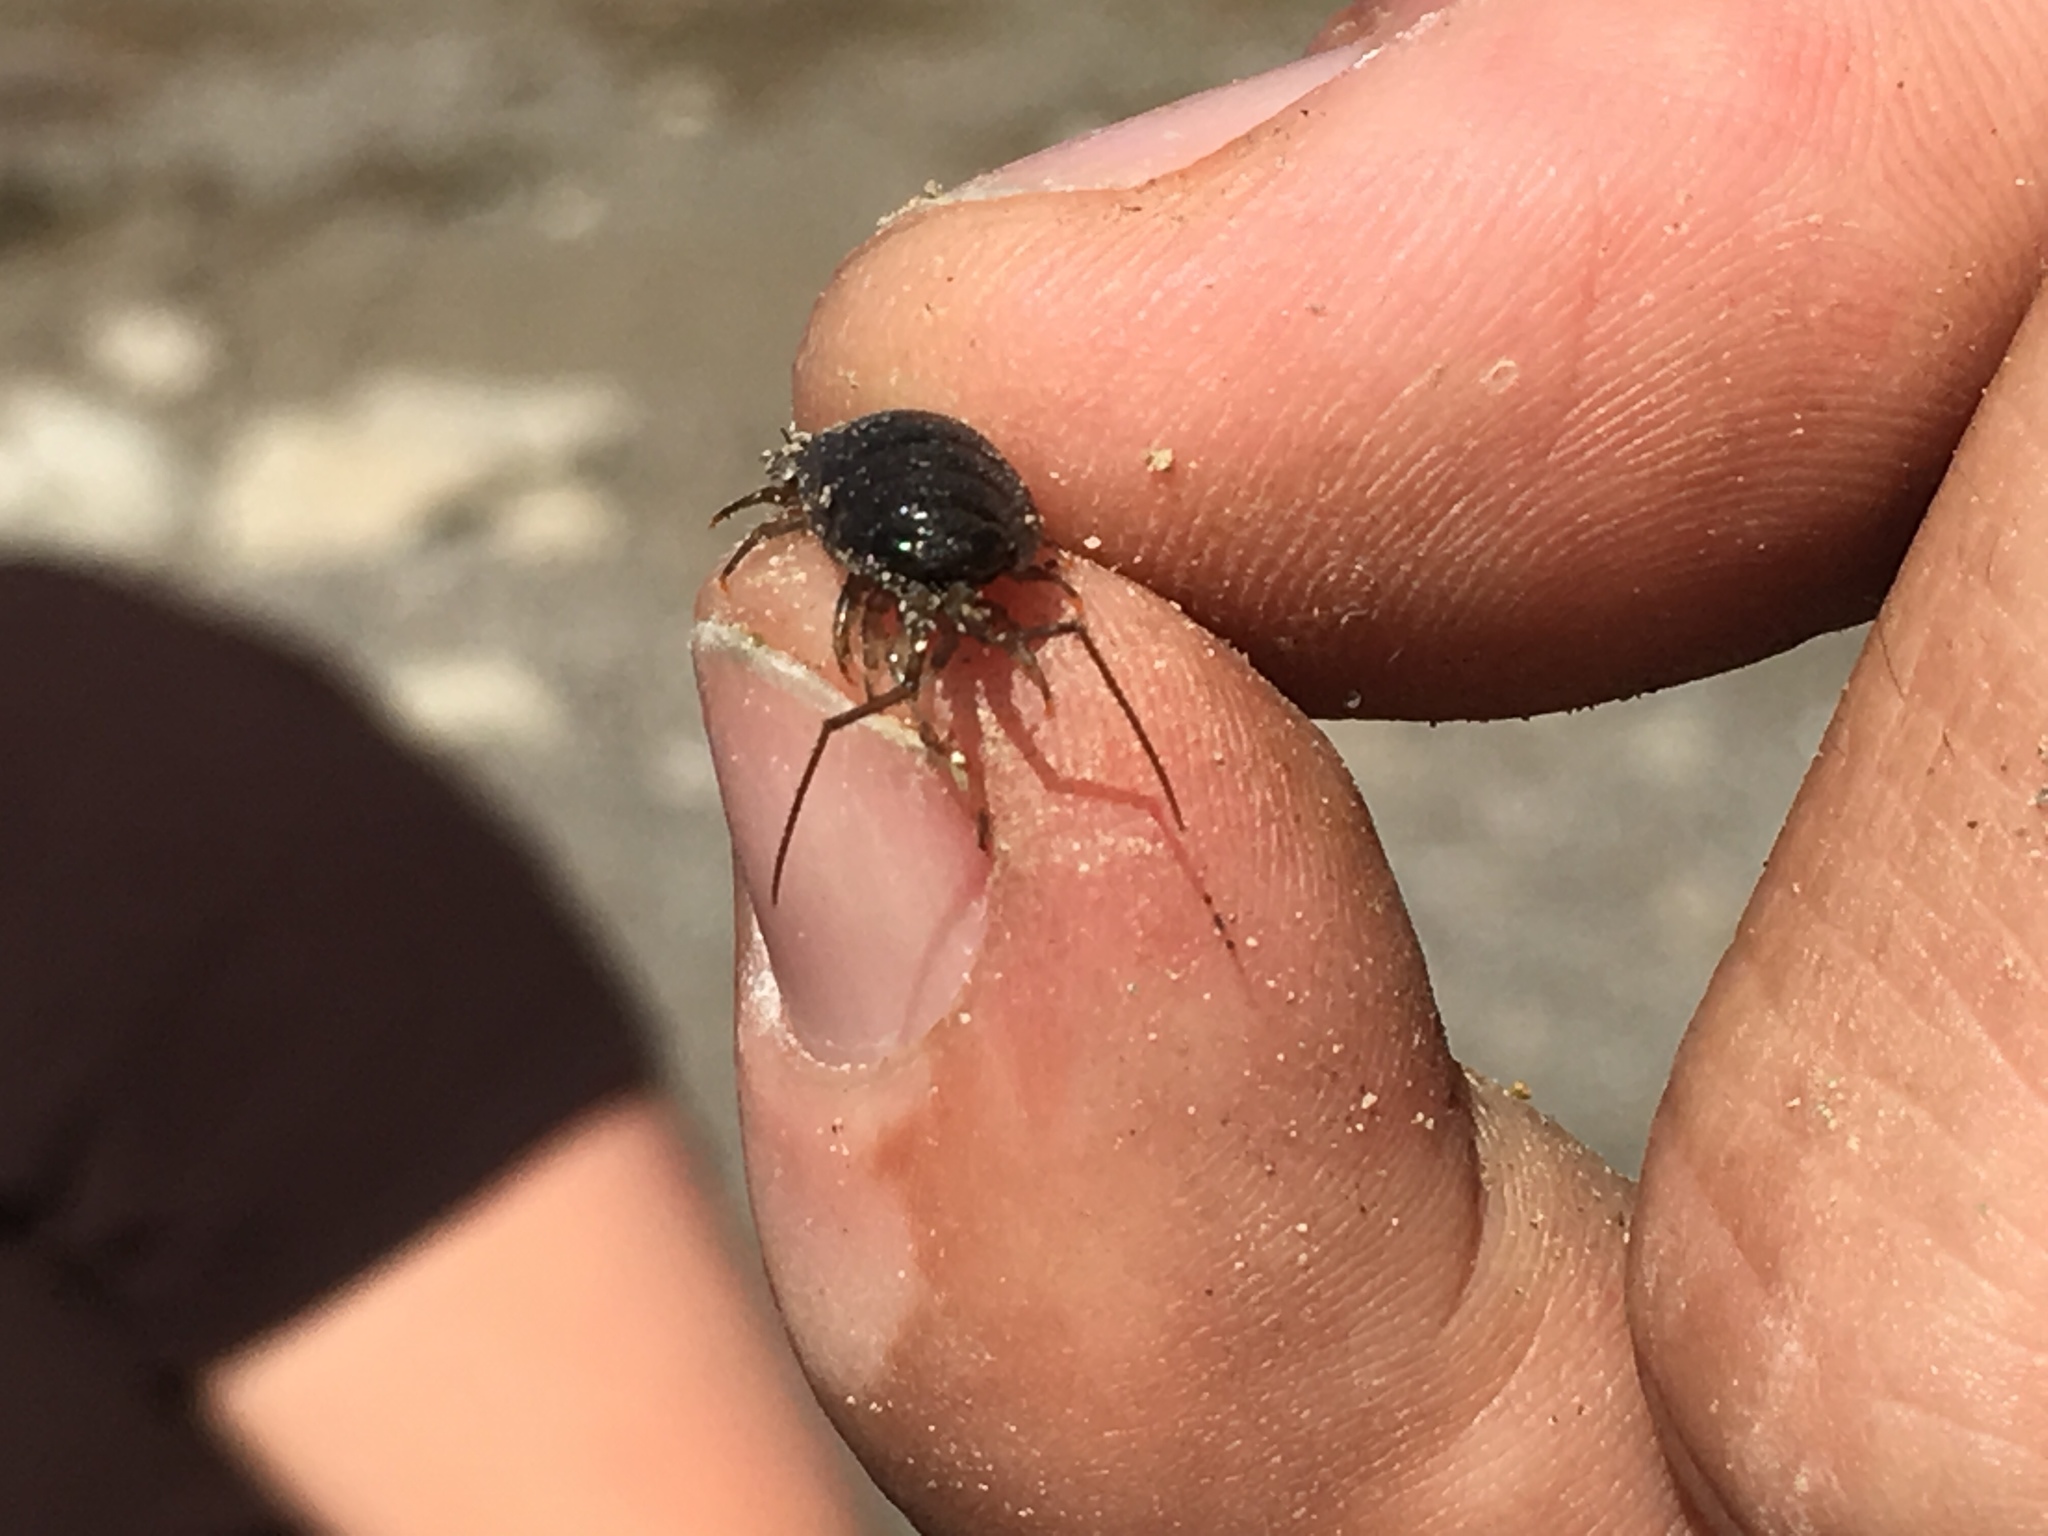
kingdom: Animalia
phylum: Arthropoda
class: Malacostraca
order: Isopoda
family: Ligiidae
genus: Ligia
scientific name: Ligia occidentalis
